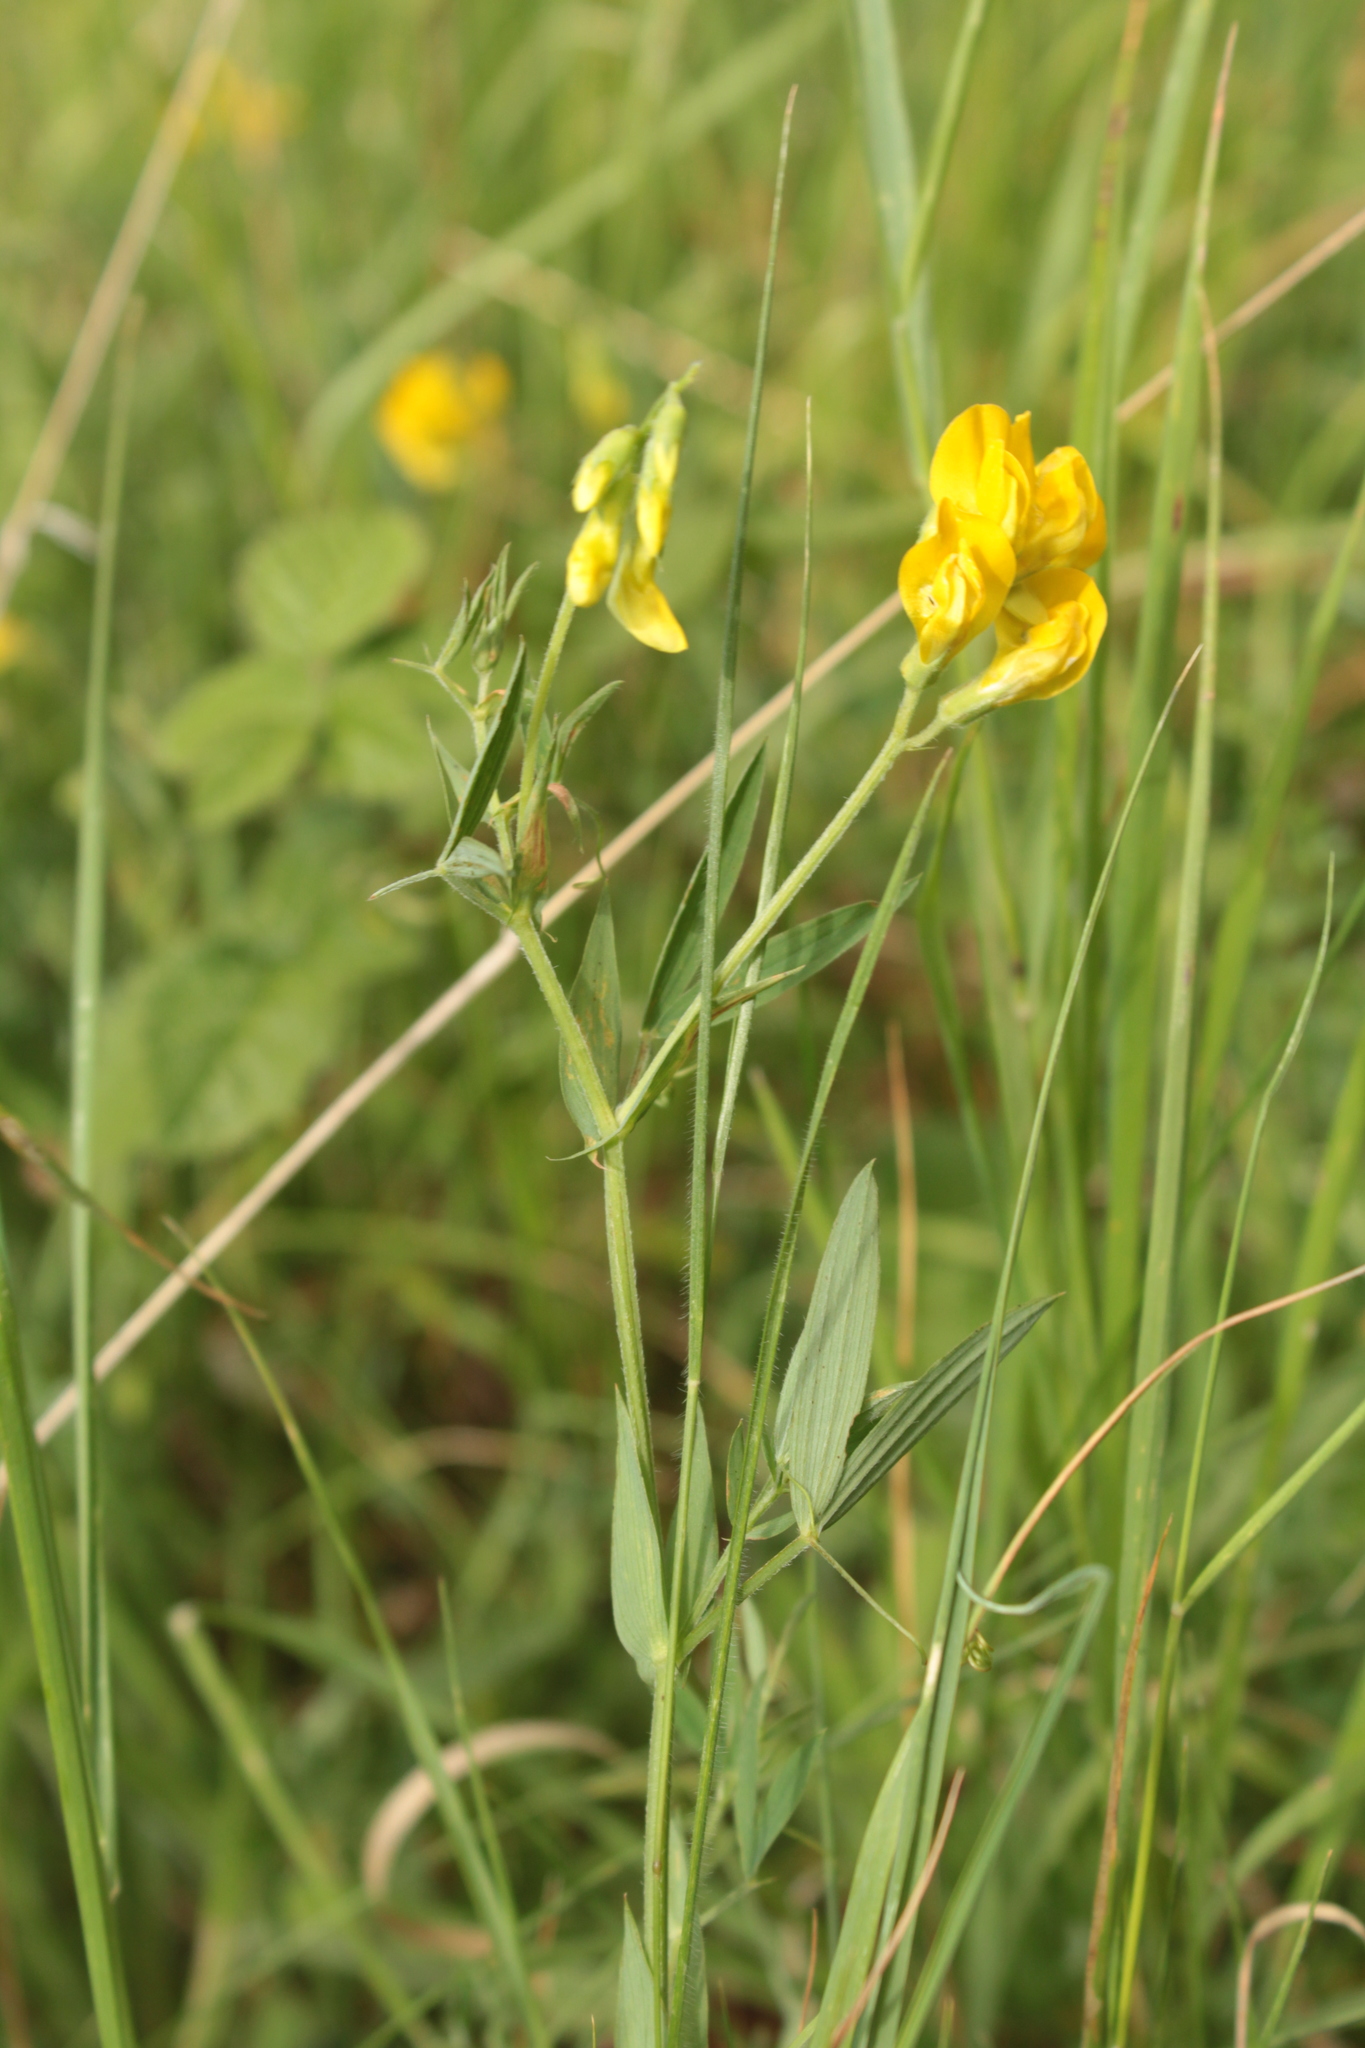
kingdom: Plantae
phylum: Tracheophyta
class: Magnoliopsida
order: Fabales
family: Fabaceae
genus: Lathyrus
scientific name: Lathyrus pratensis
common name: Meadow vetchling
